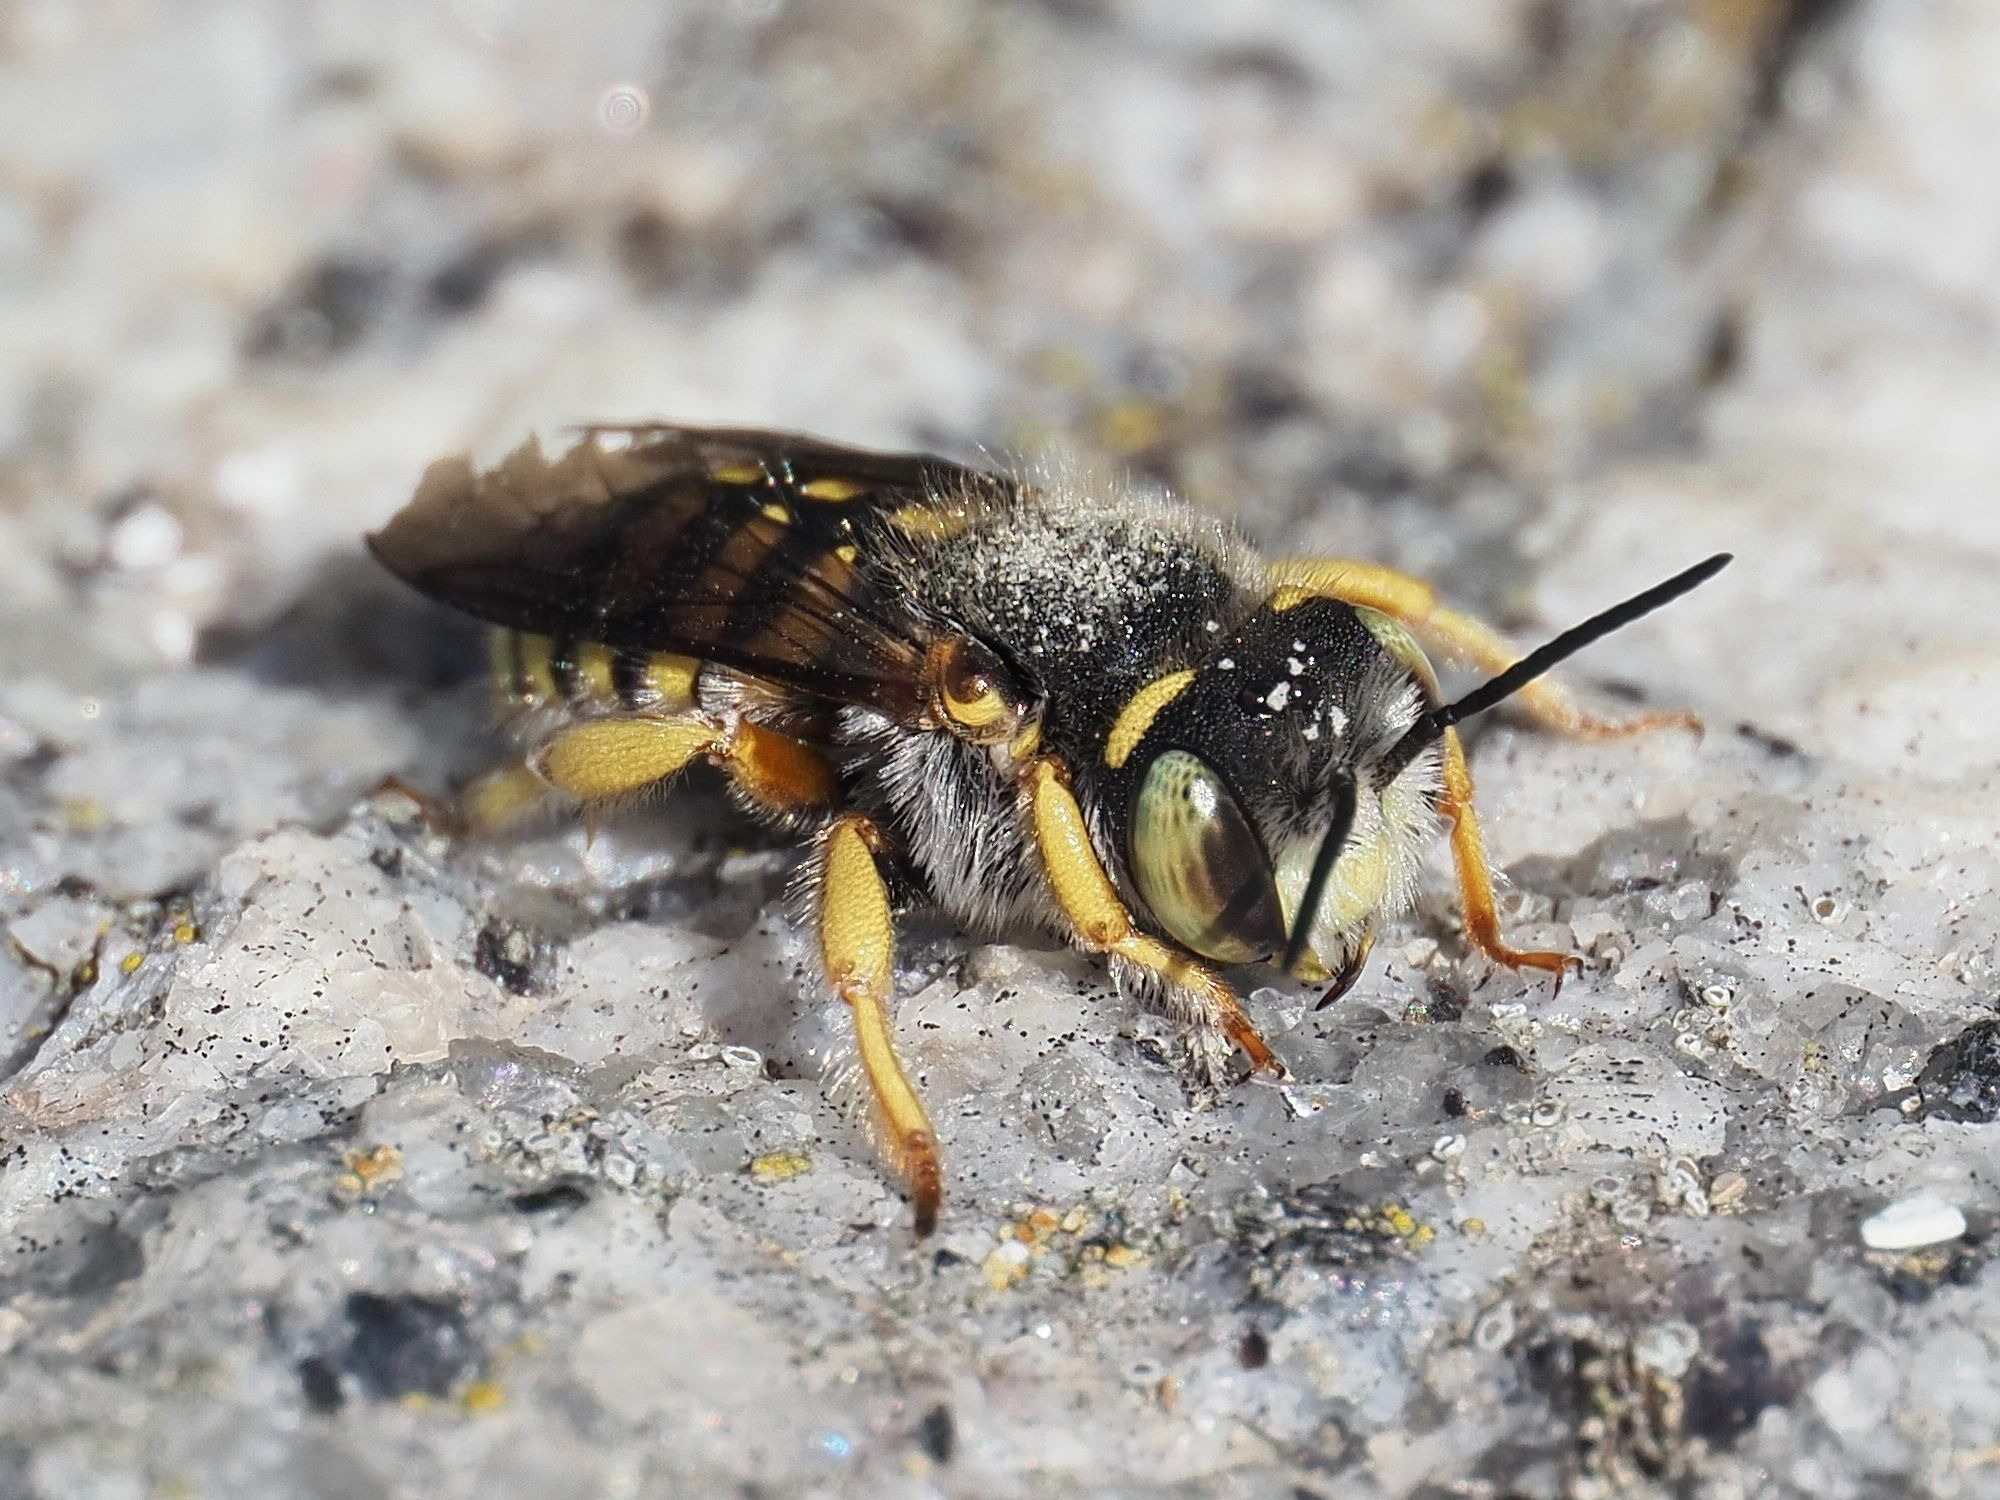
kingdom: Animalia
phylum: Arthropoda
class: Insecta
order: Hymenoptera
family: Megachilidae
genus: Anthidium
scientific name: Anthidium oblongatum
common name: Oblong wool carder bee
